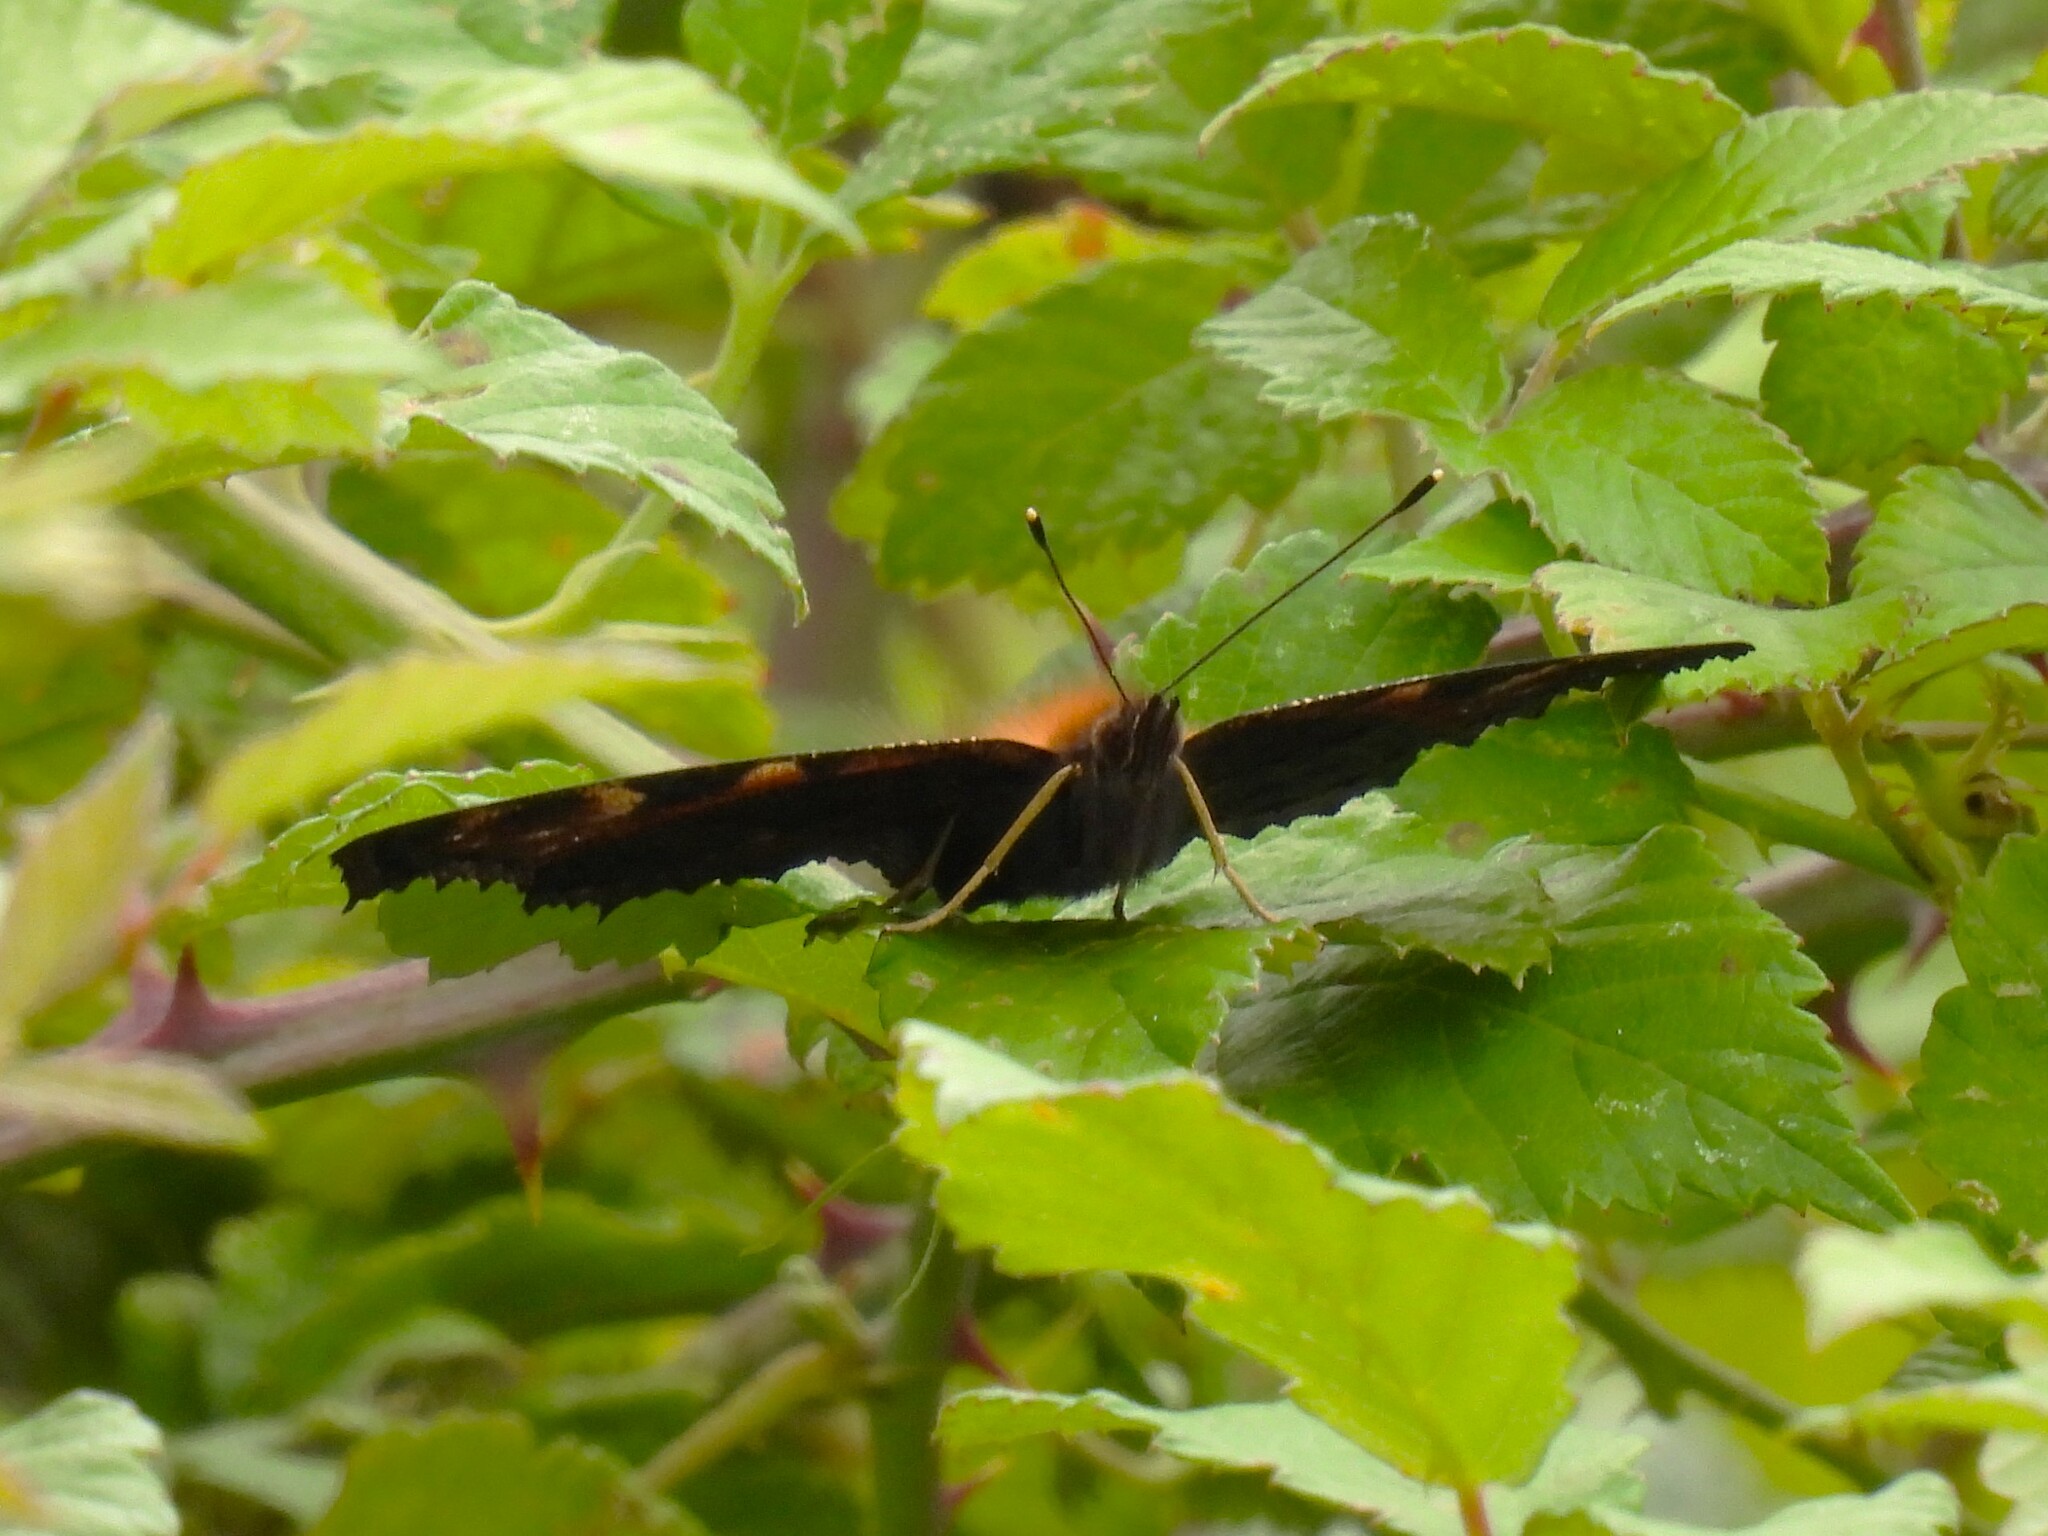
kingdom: Animalia
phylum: Arthropoda
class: Insecta
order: Lepidoptera
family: Nymphalidae
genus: Aglais
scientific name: Aglais io
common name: Peacock
